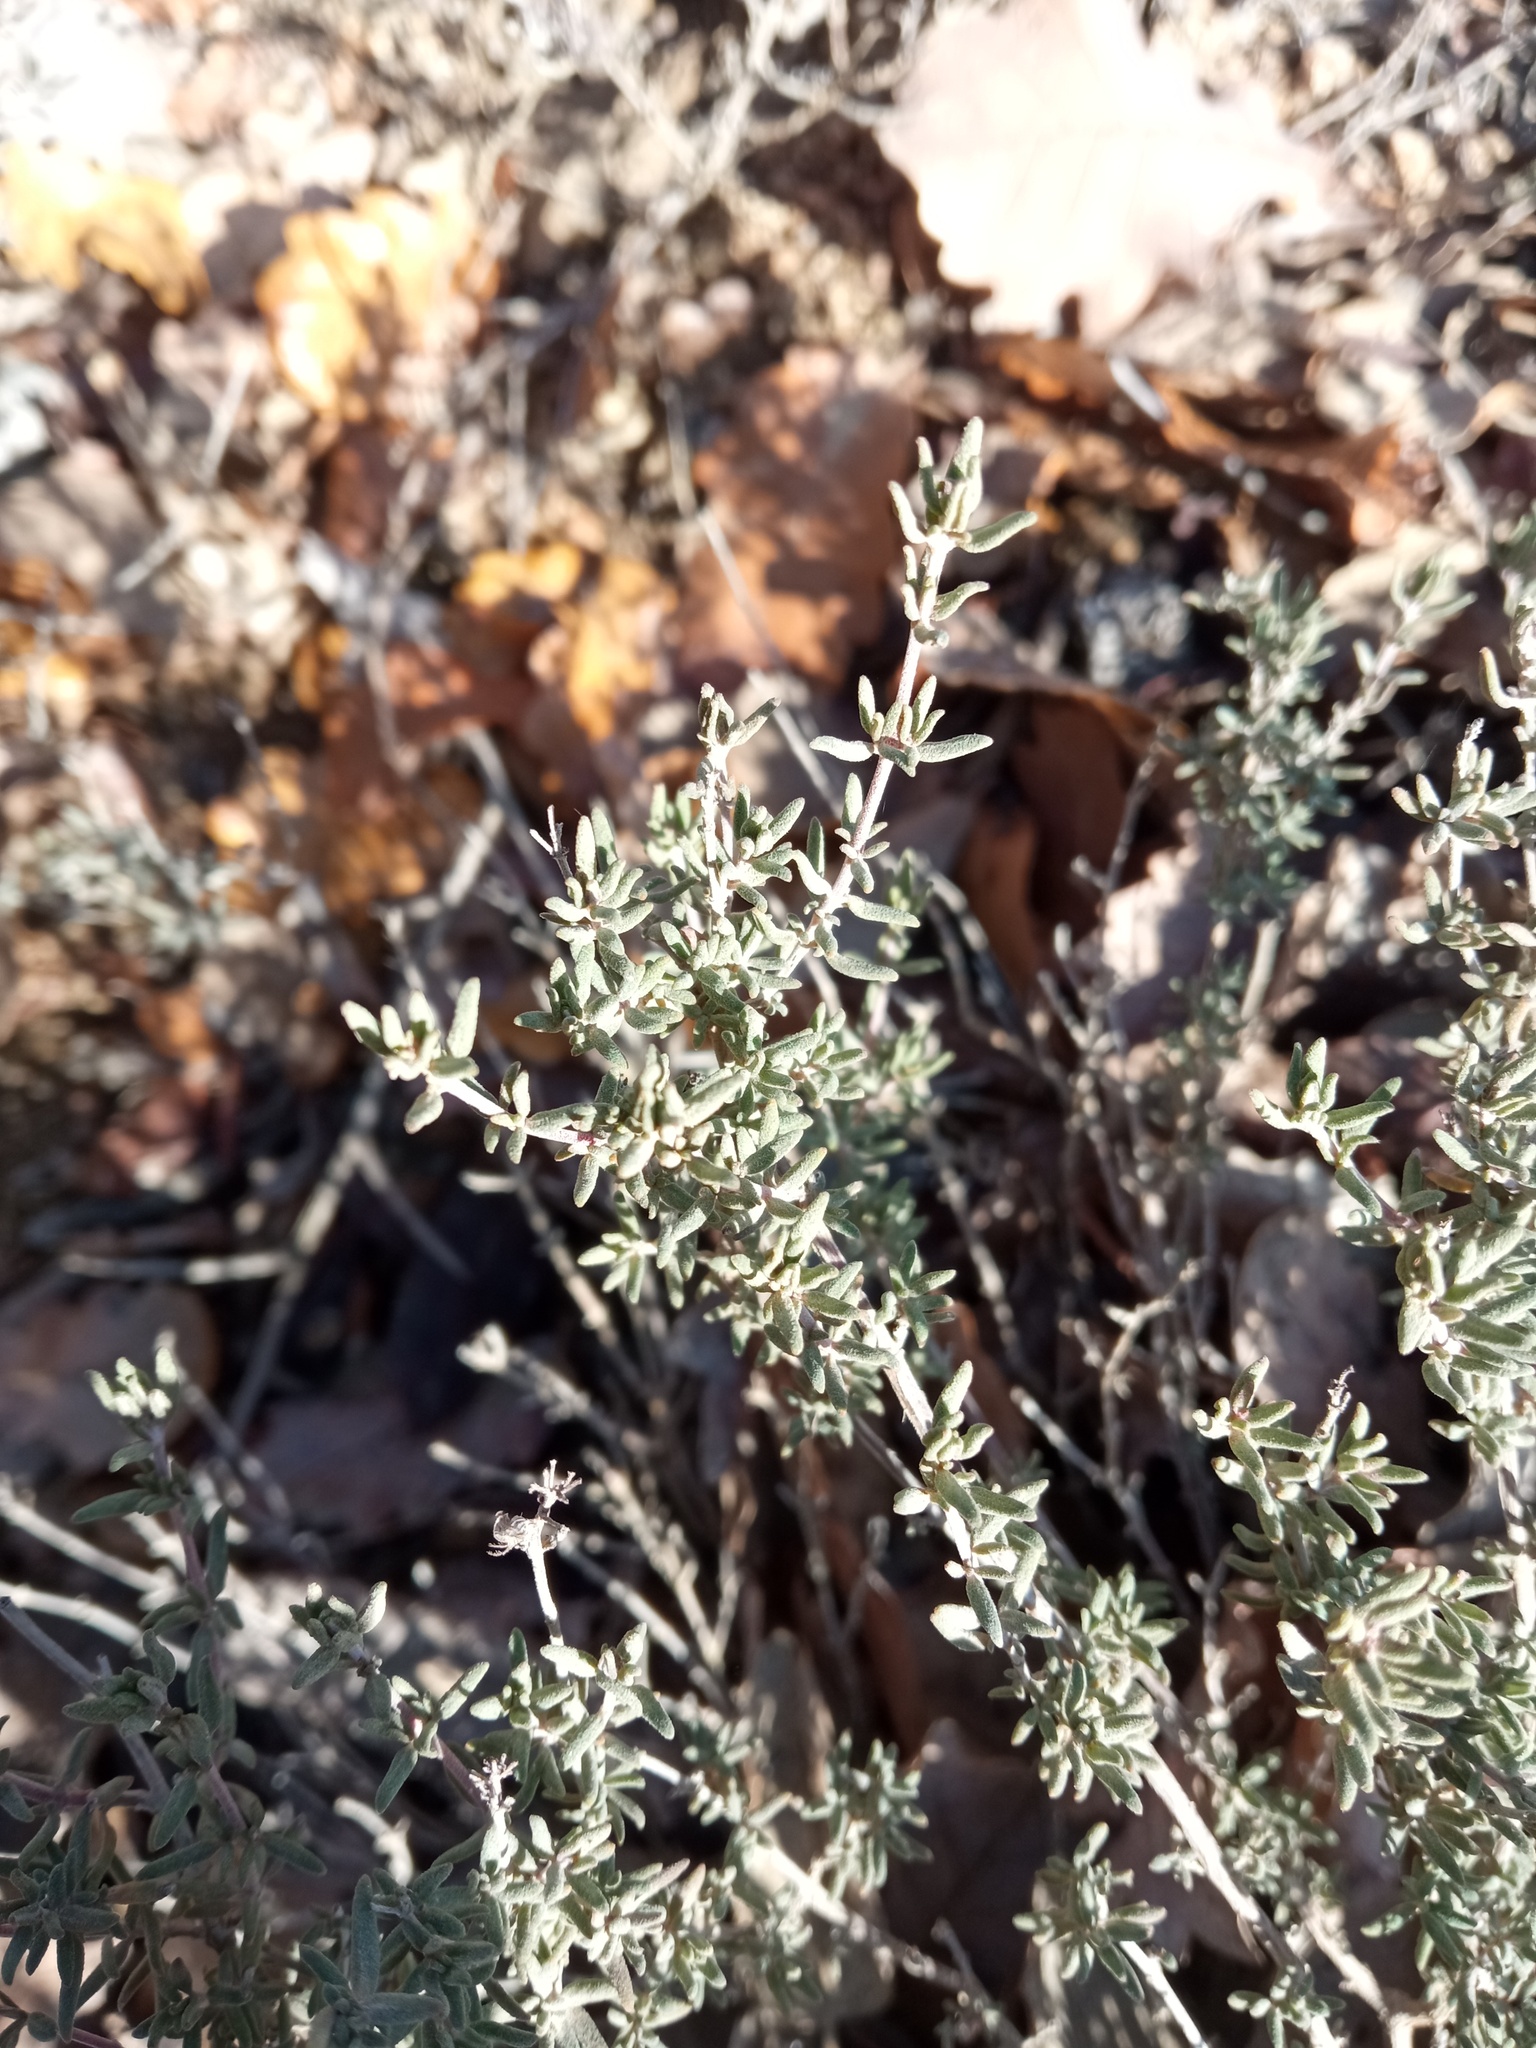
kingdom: Plantae
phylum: Tracheophyta
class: Magnoliopsida
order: Lamiales
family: Lamiaceae
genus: Thymus
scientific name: Thymus vulgaris
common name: Garden thyme
